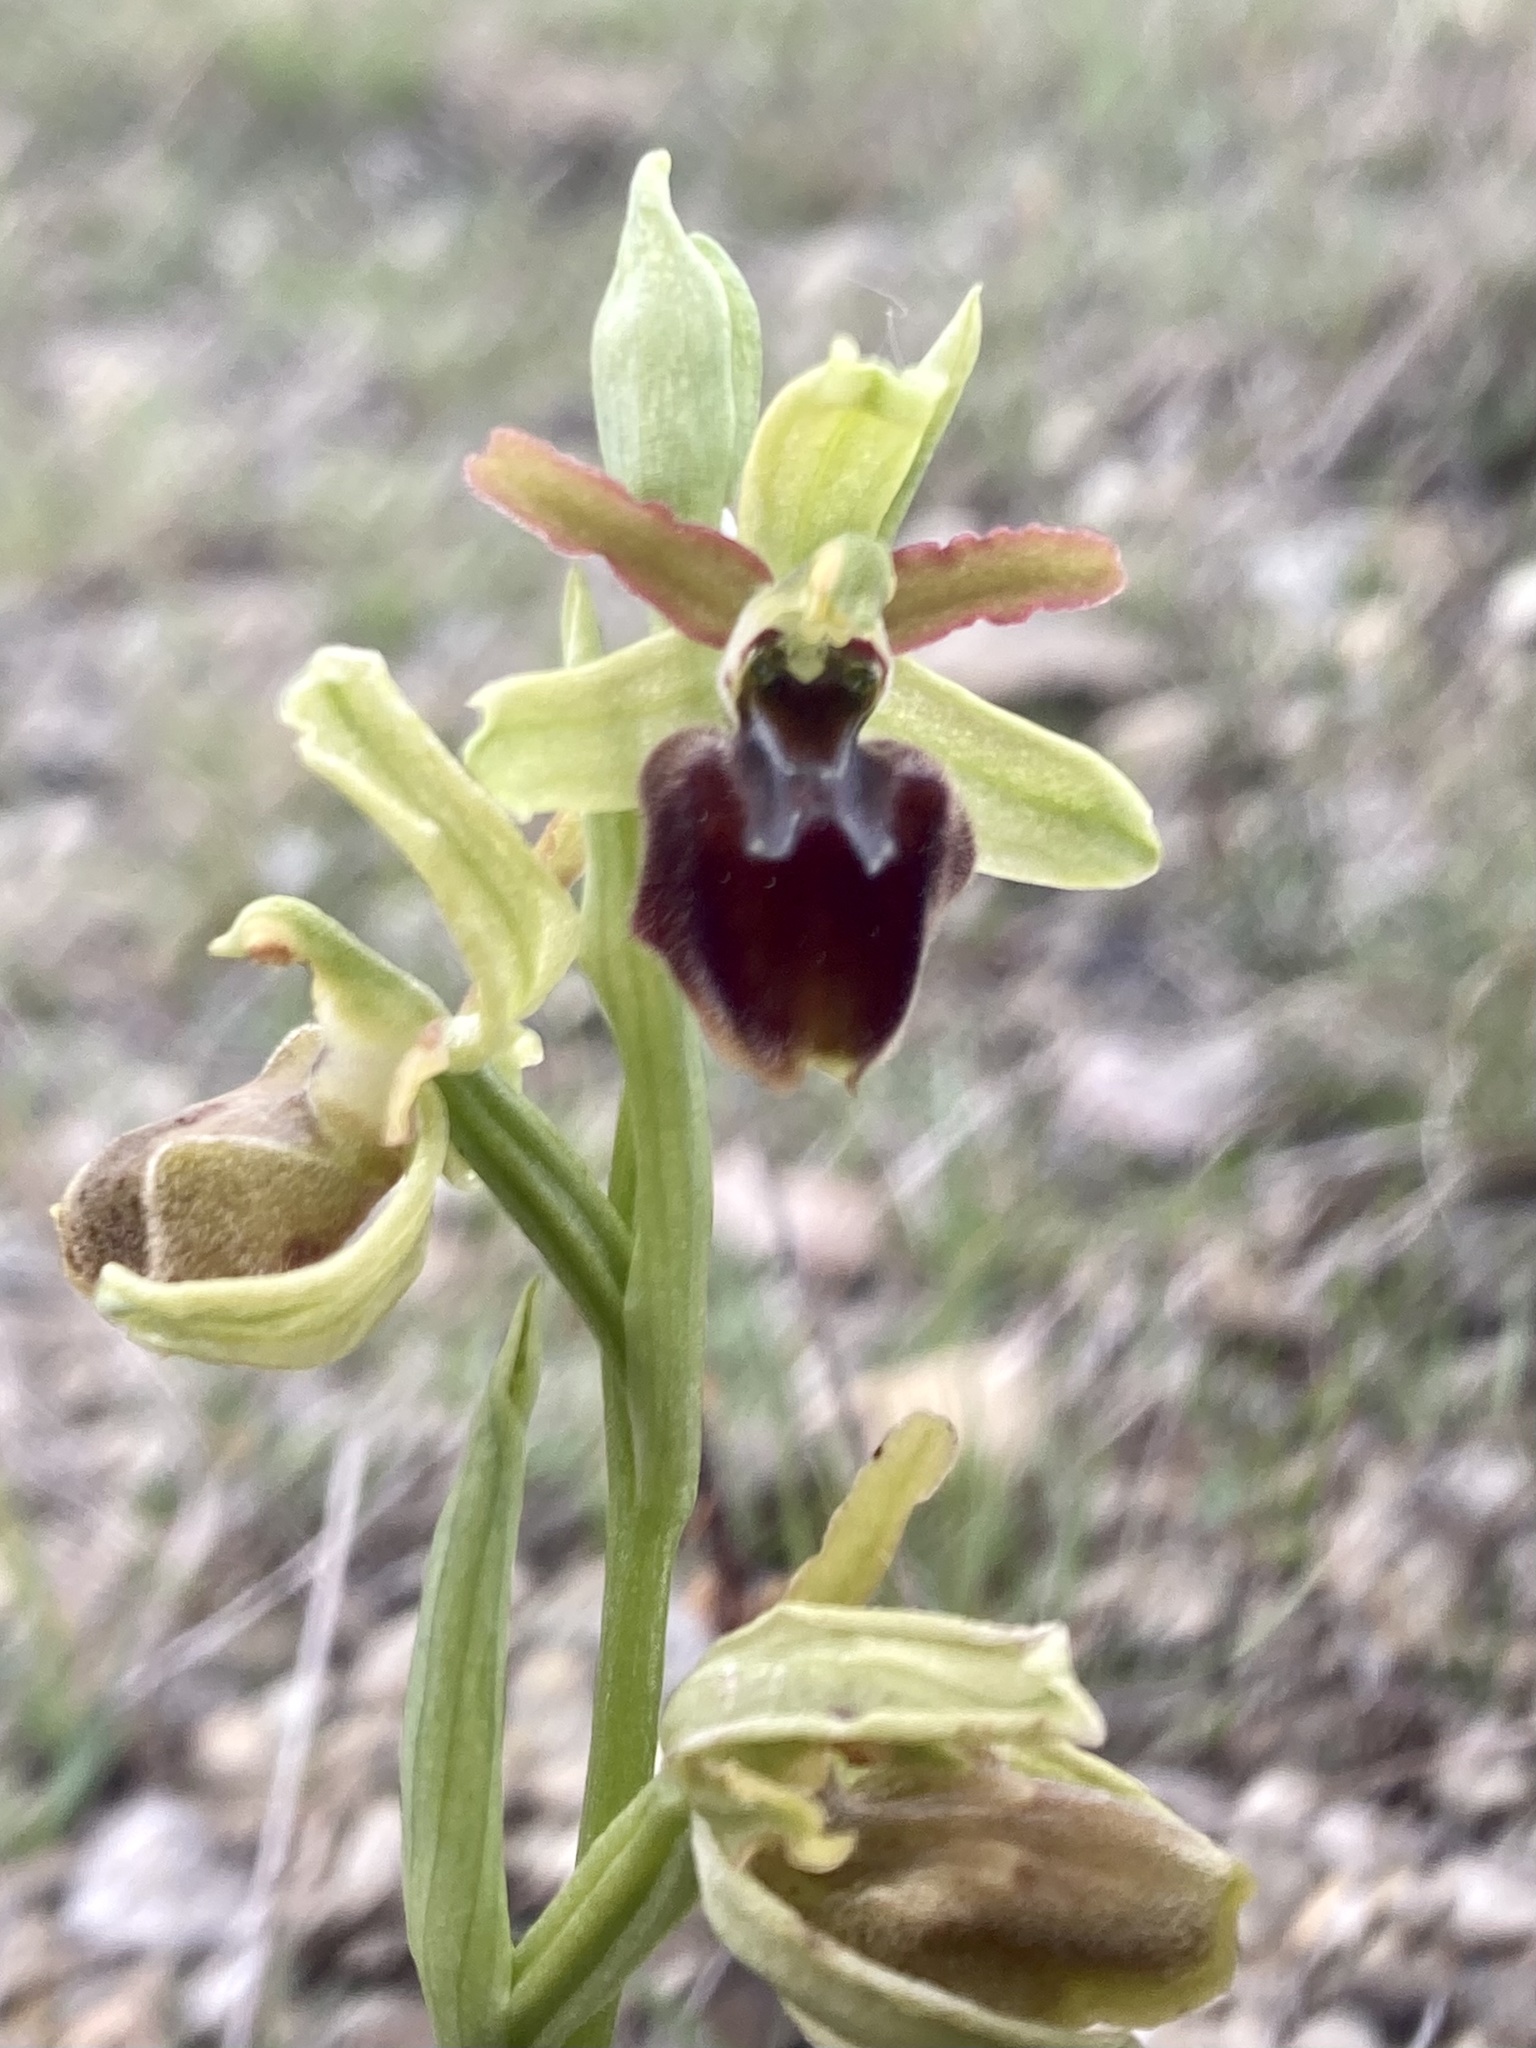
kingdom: Plantae
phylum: Tracheophyta
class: Liliopsida
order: Asparagales
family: Orchidaceae
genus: Ophrys
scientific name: Ophrys sphegodes
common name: Early spider-orchid
